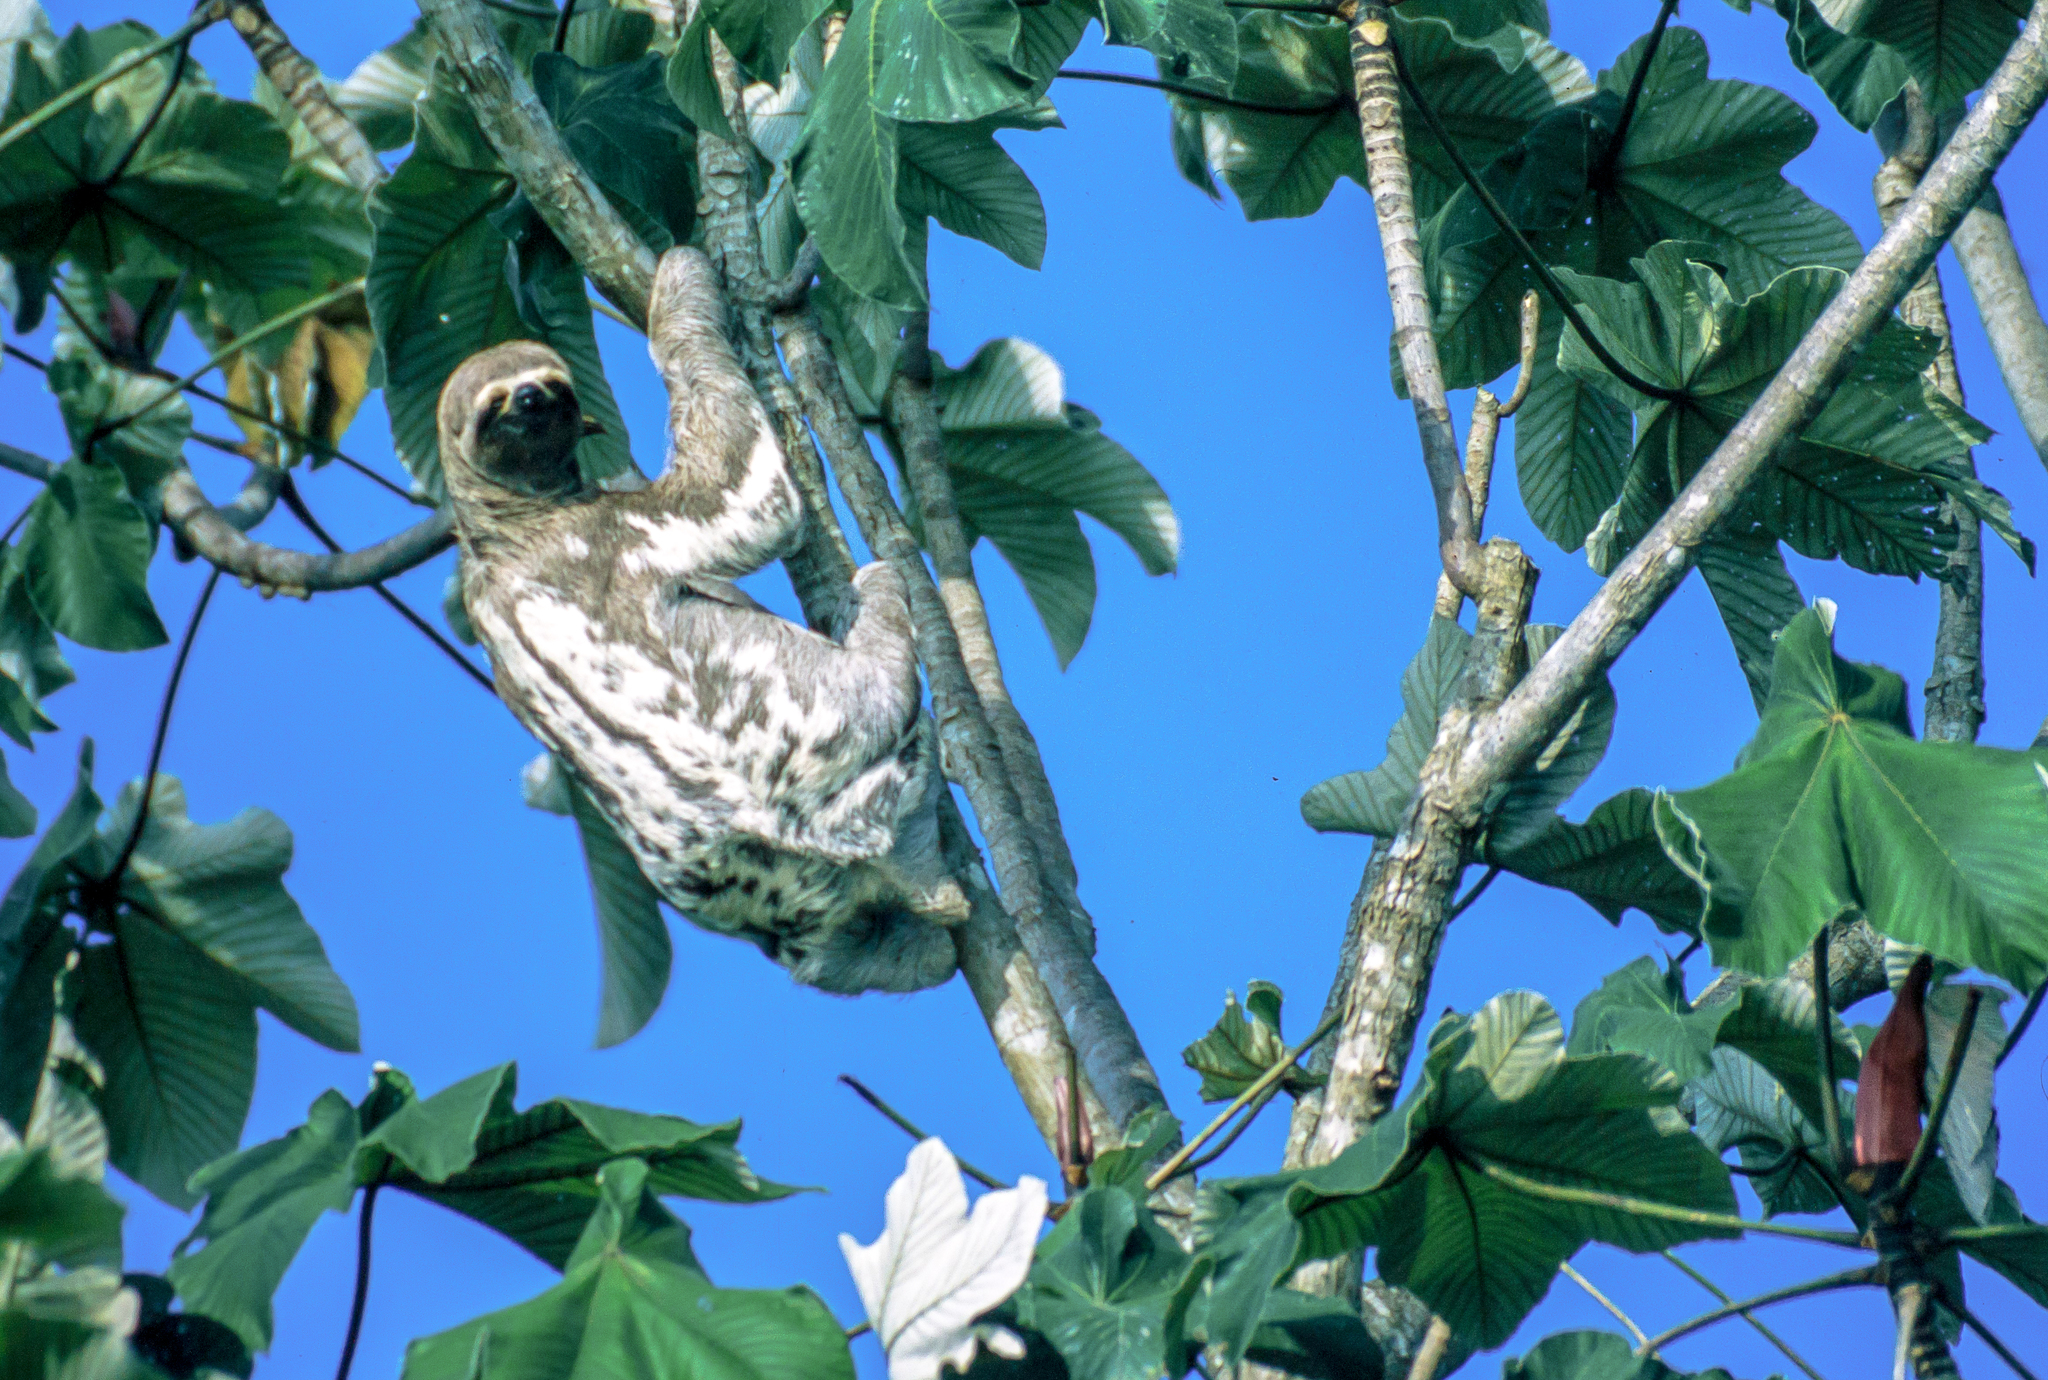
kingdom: Animalia
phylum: Chordata
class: Mammalia
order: Pilosa
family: Bradypodidae
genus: Bradypus
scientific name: Bradypus variegatus
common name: Brown-throated three-toed sloth
